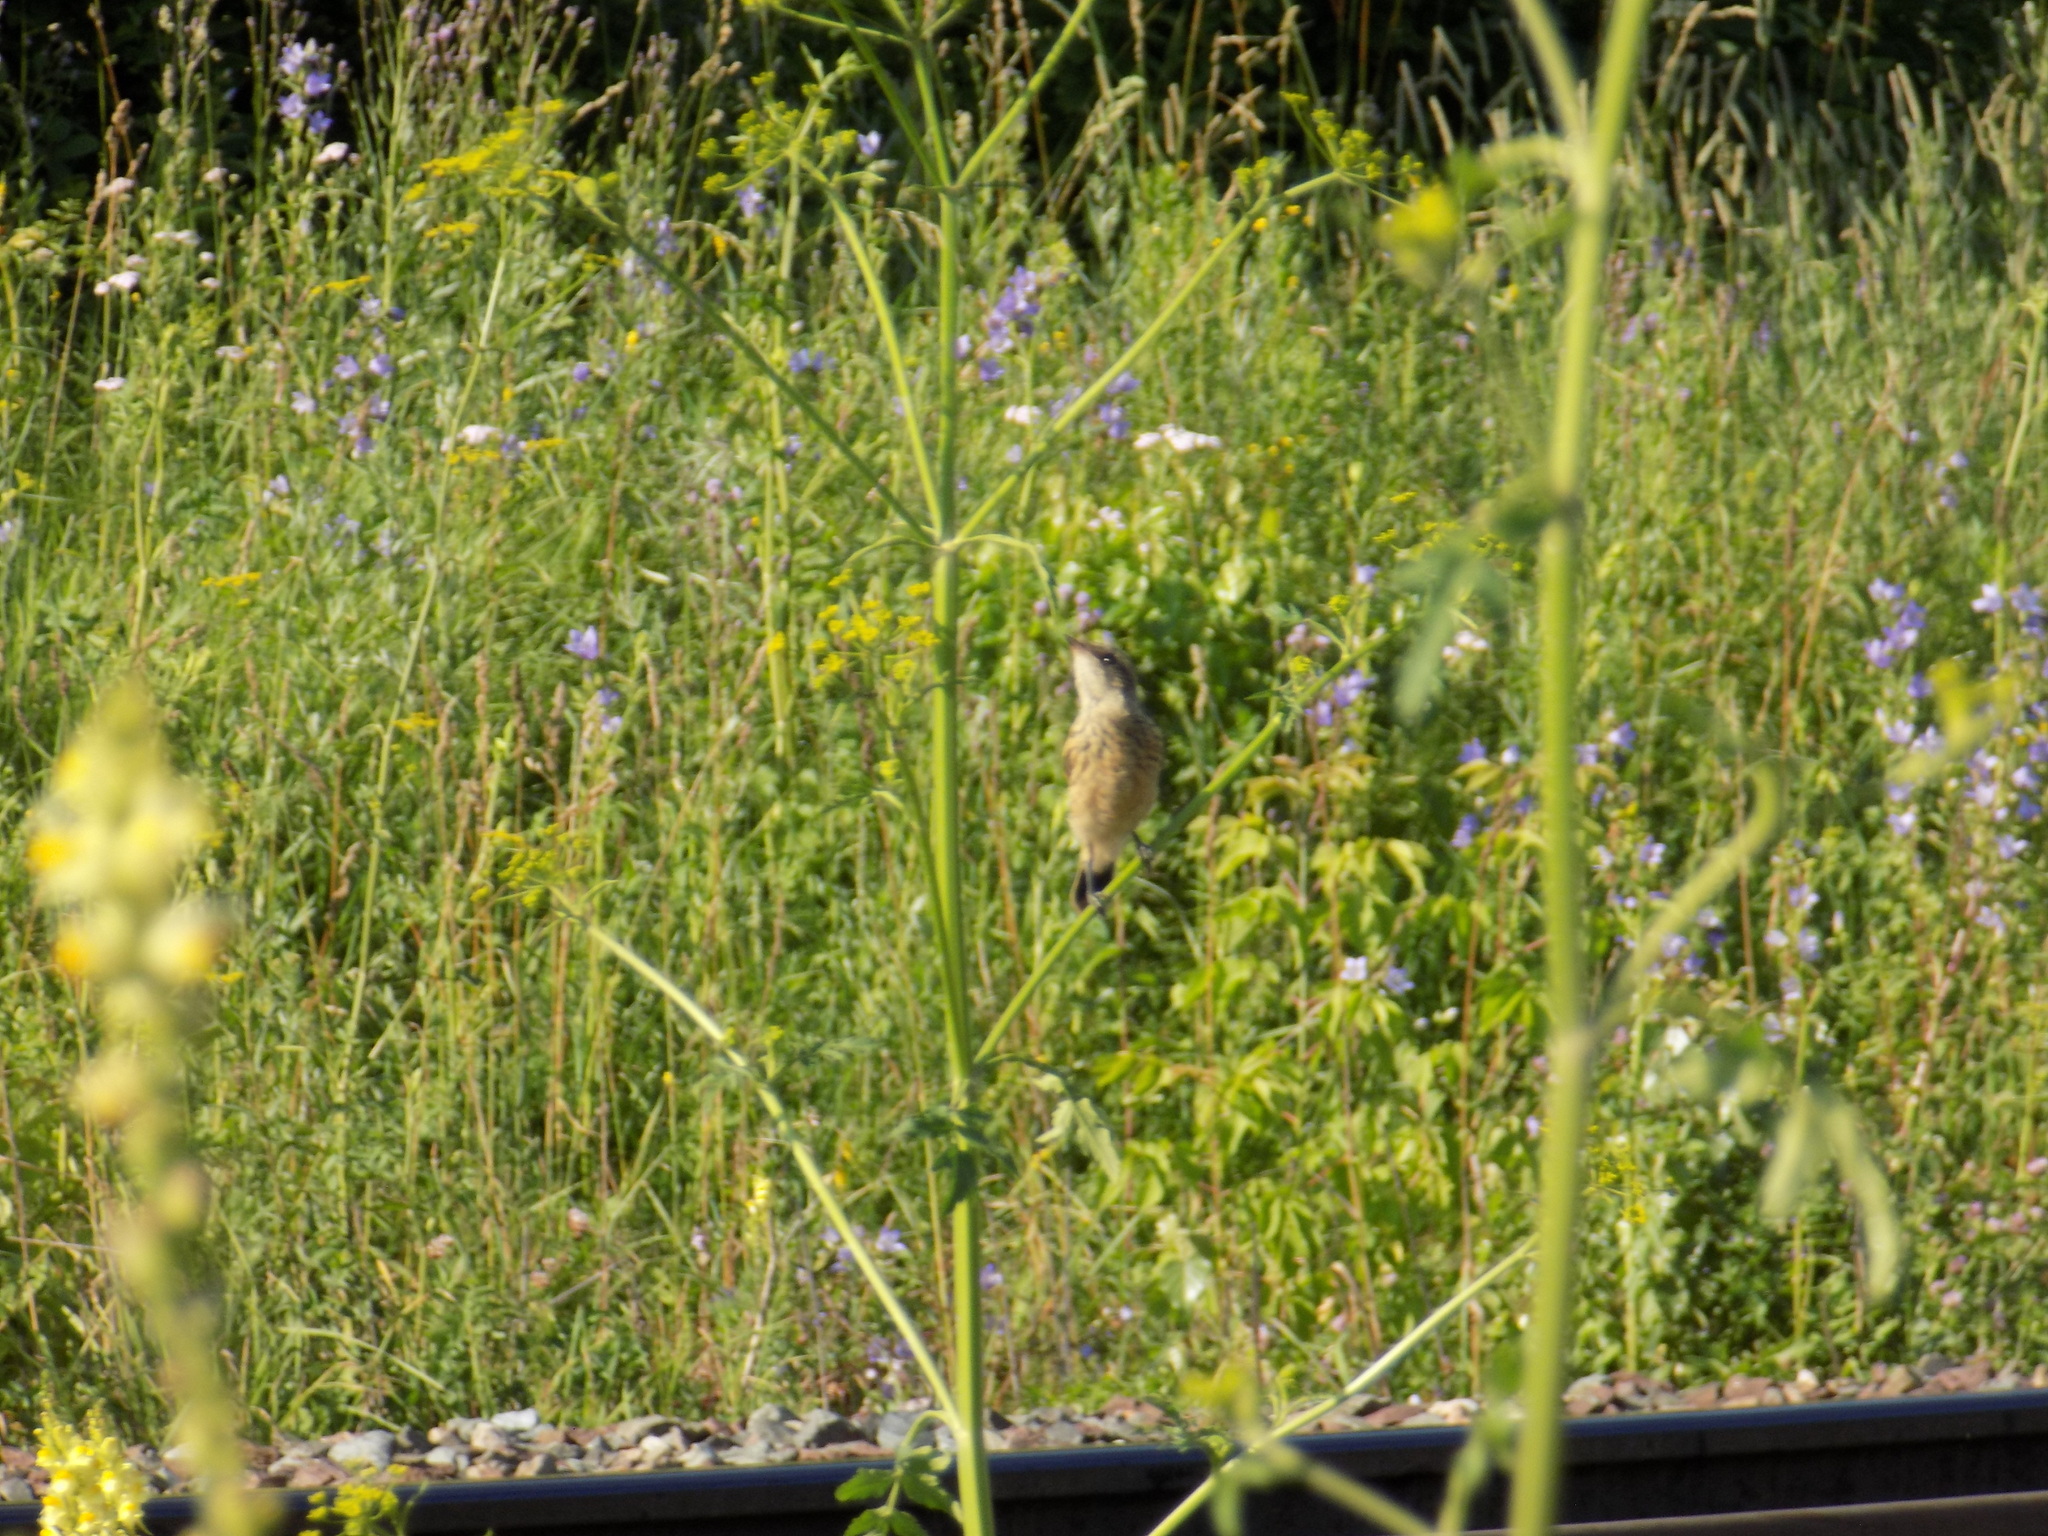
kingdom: Animalia
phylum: Chordata
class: Aves
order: Passeriformes
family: Muscicapidae
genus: Saxicola
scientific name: Saxicola maurus
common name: Siberian stonechat
